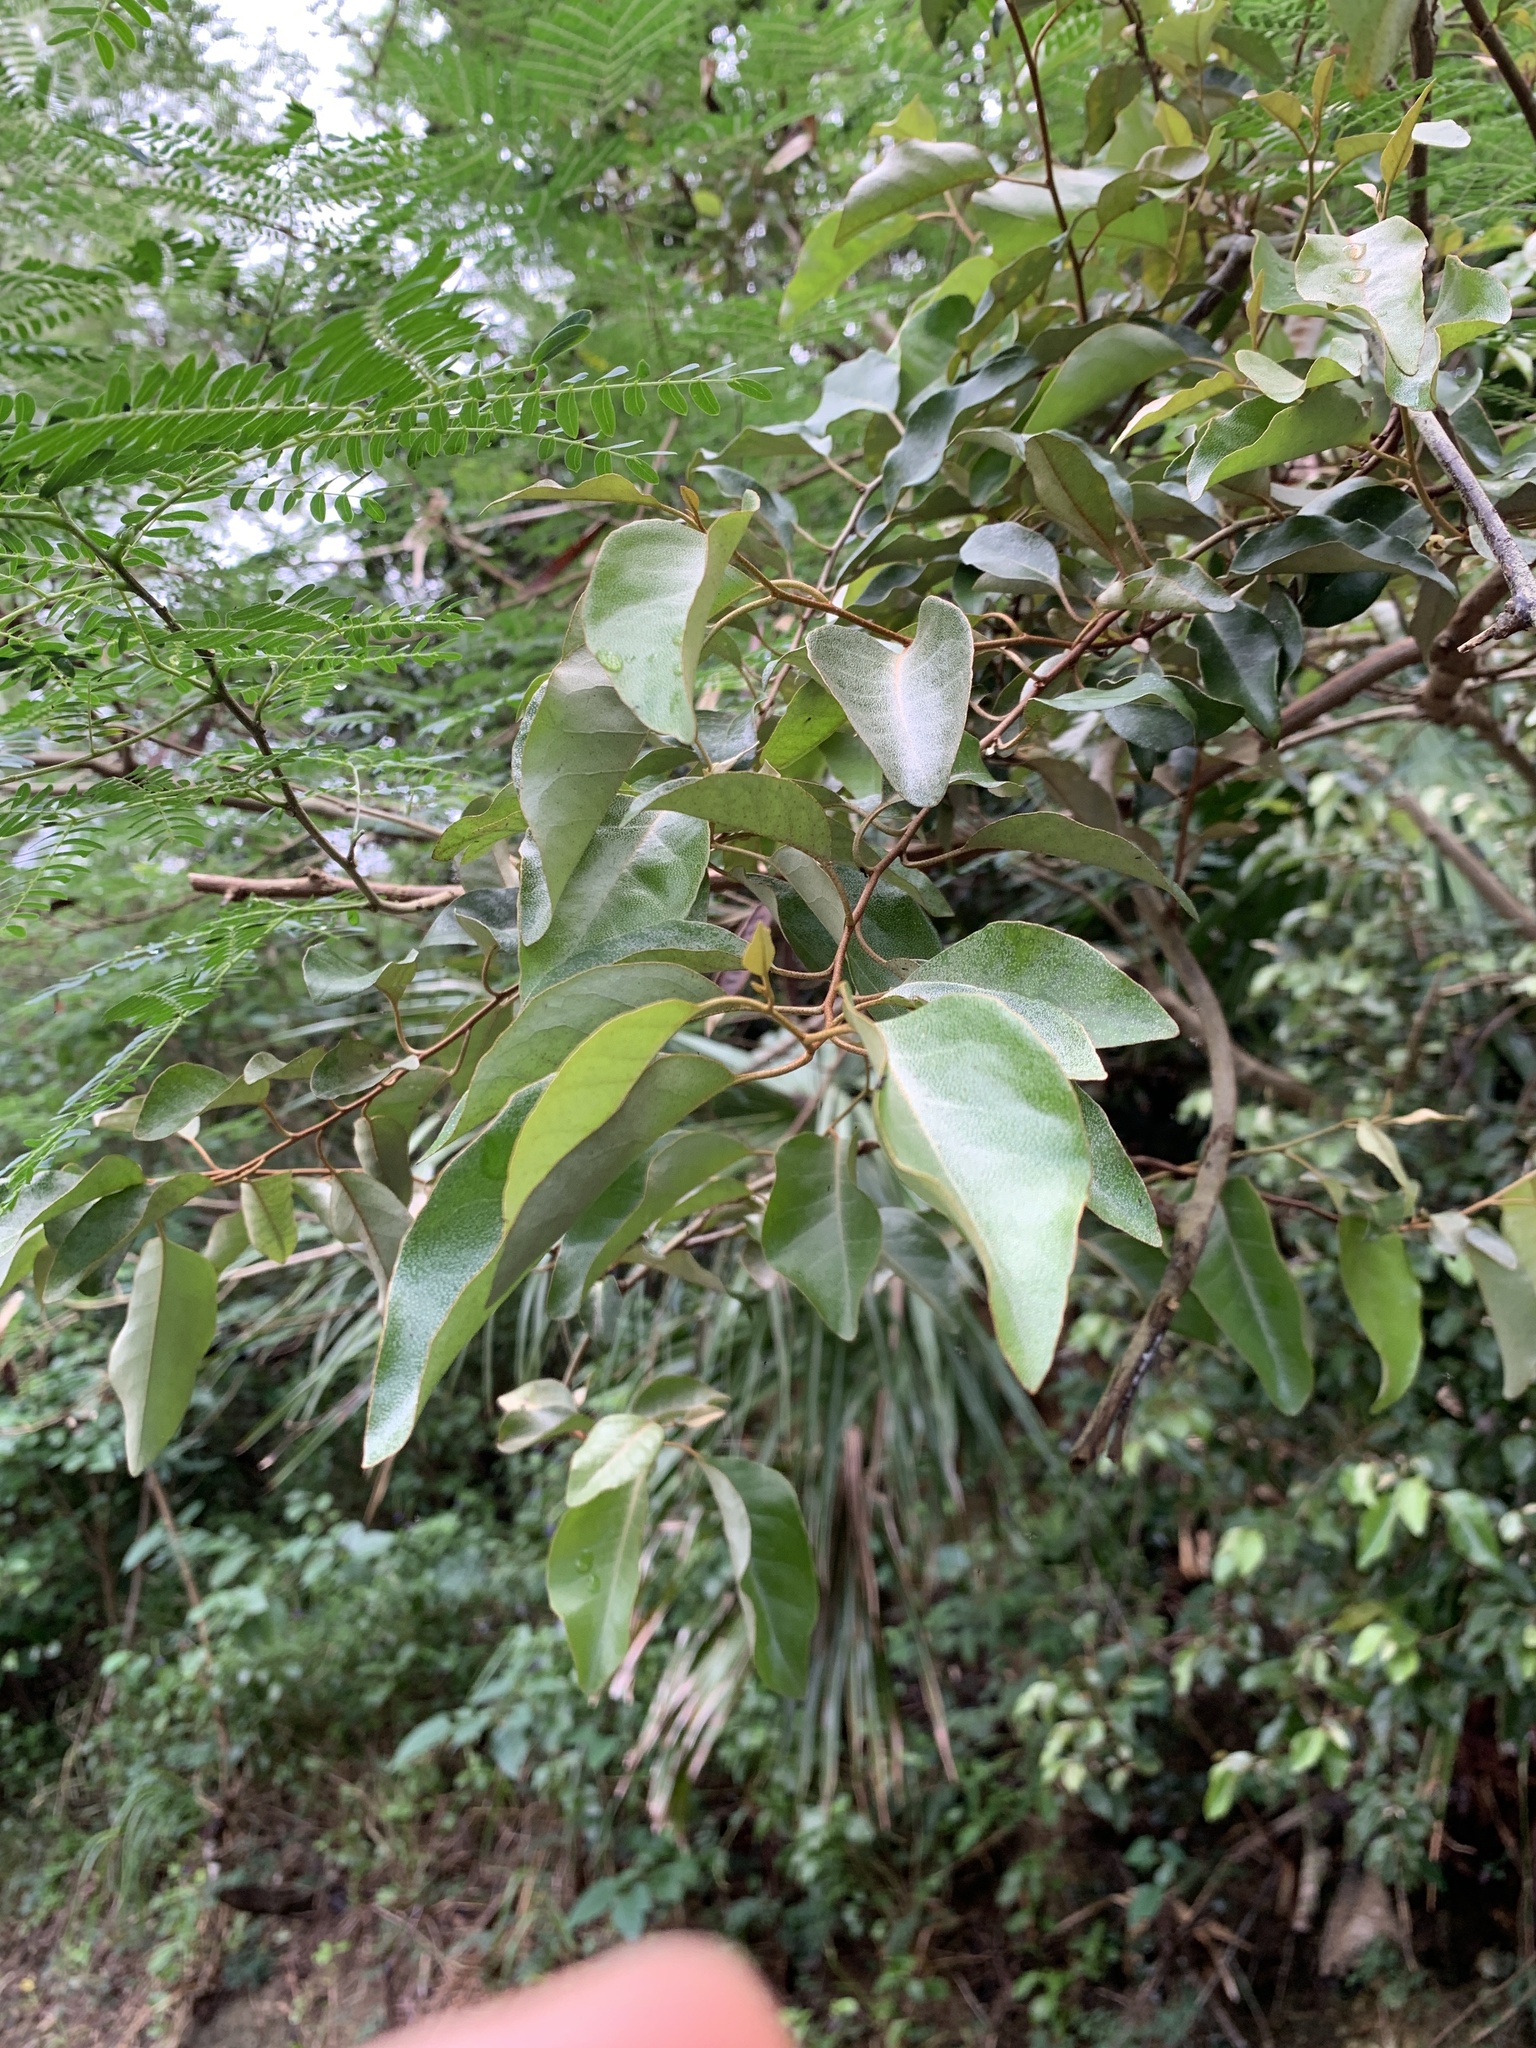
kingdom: Plantae
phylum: Tracheophyta
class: Magnoliopsida
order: Rosales
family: Elaeagnaceae
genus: Elaeagnus
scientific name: Elaeagnus rotundata
